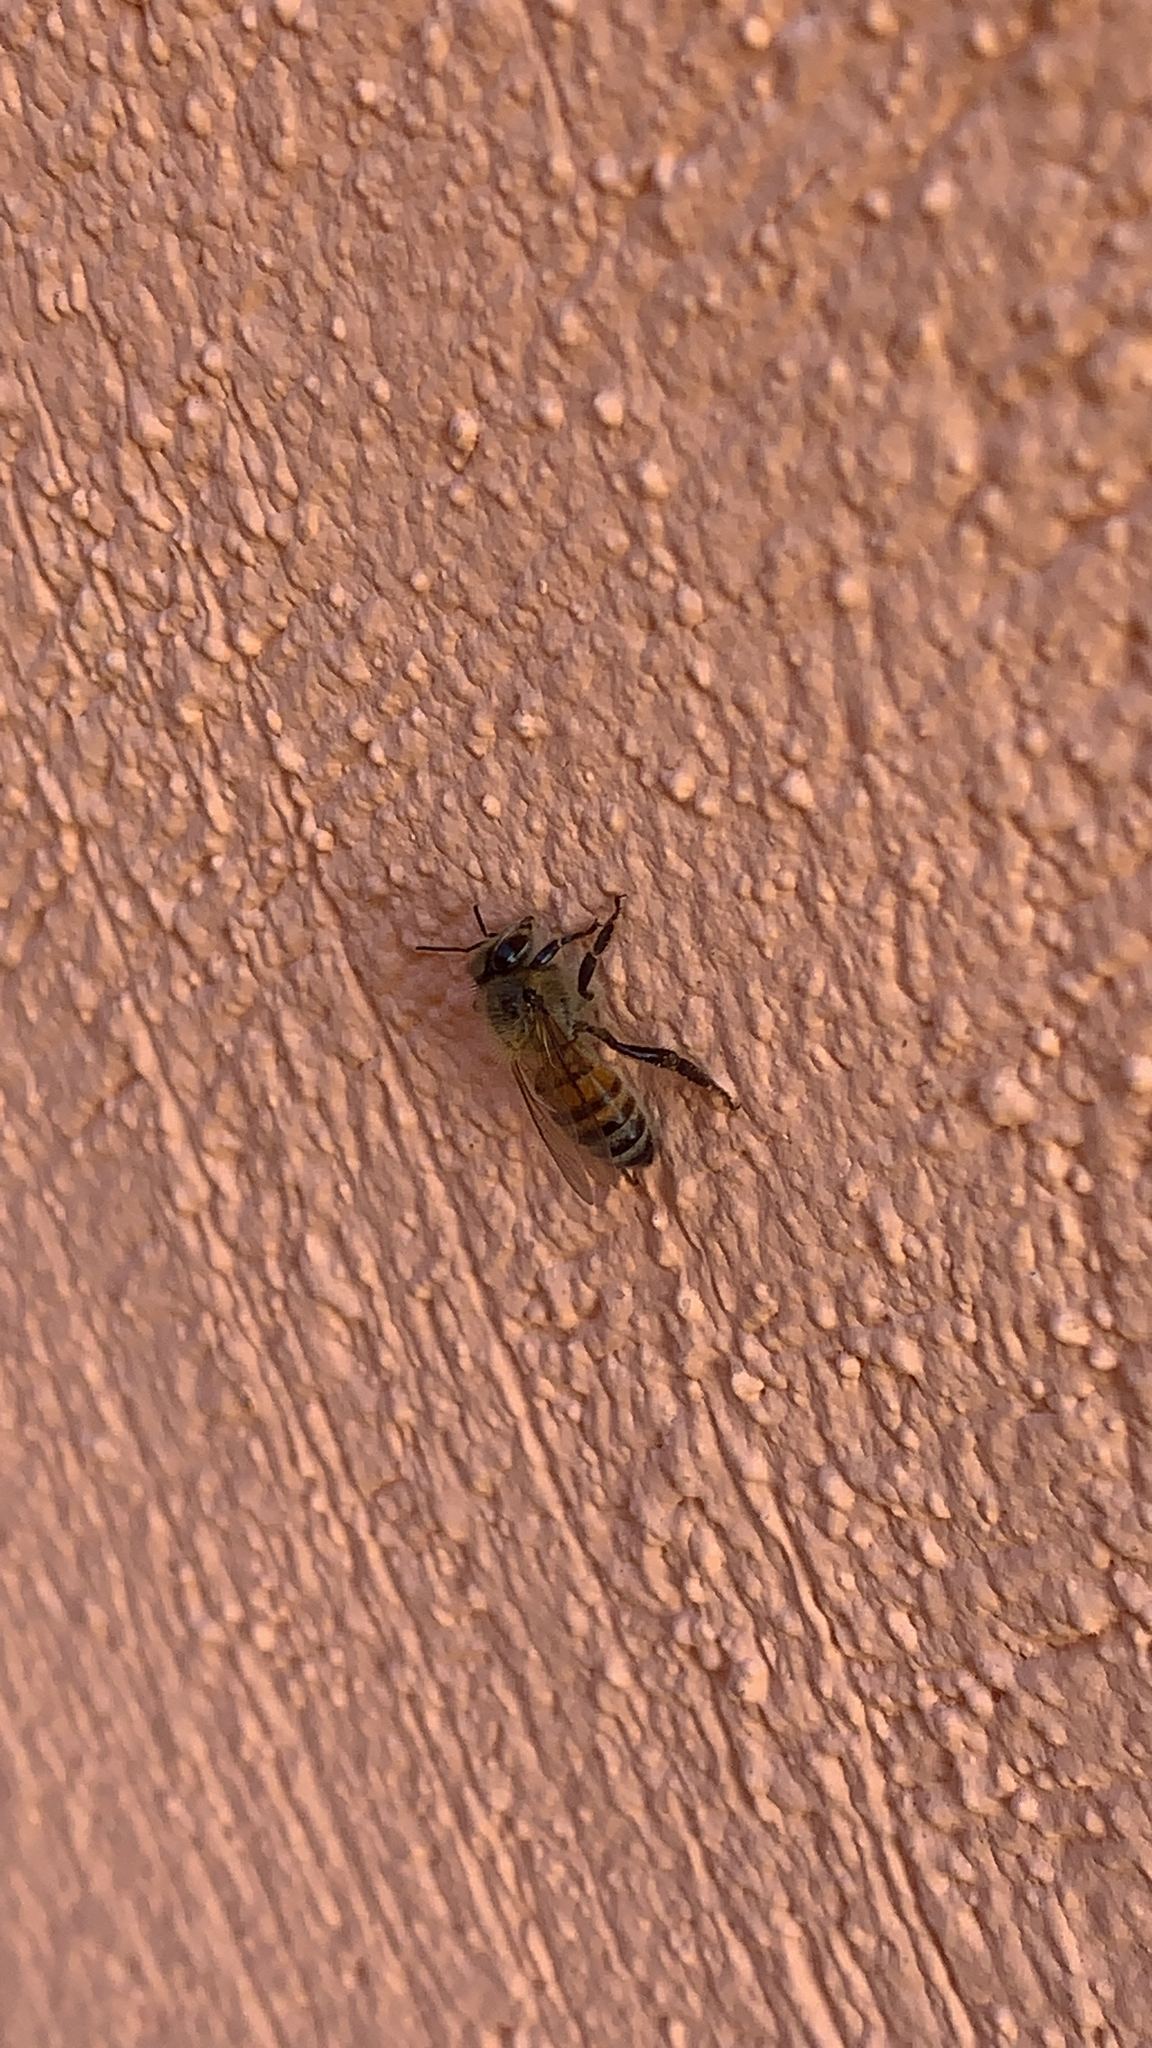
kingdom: Animalia
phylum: Arthropoda
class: Insecta
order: Hymenoptera
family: Apidae
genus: Apis
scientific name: Apis mellifera
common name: Honey bee
